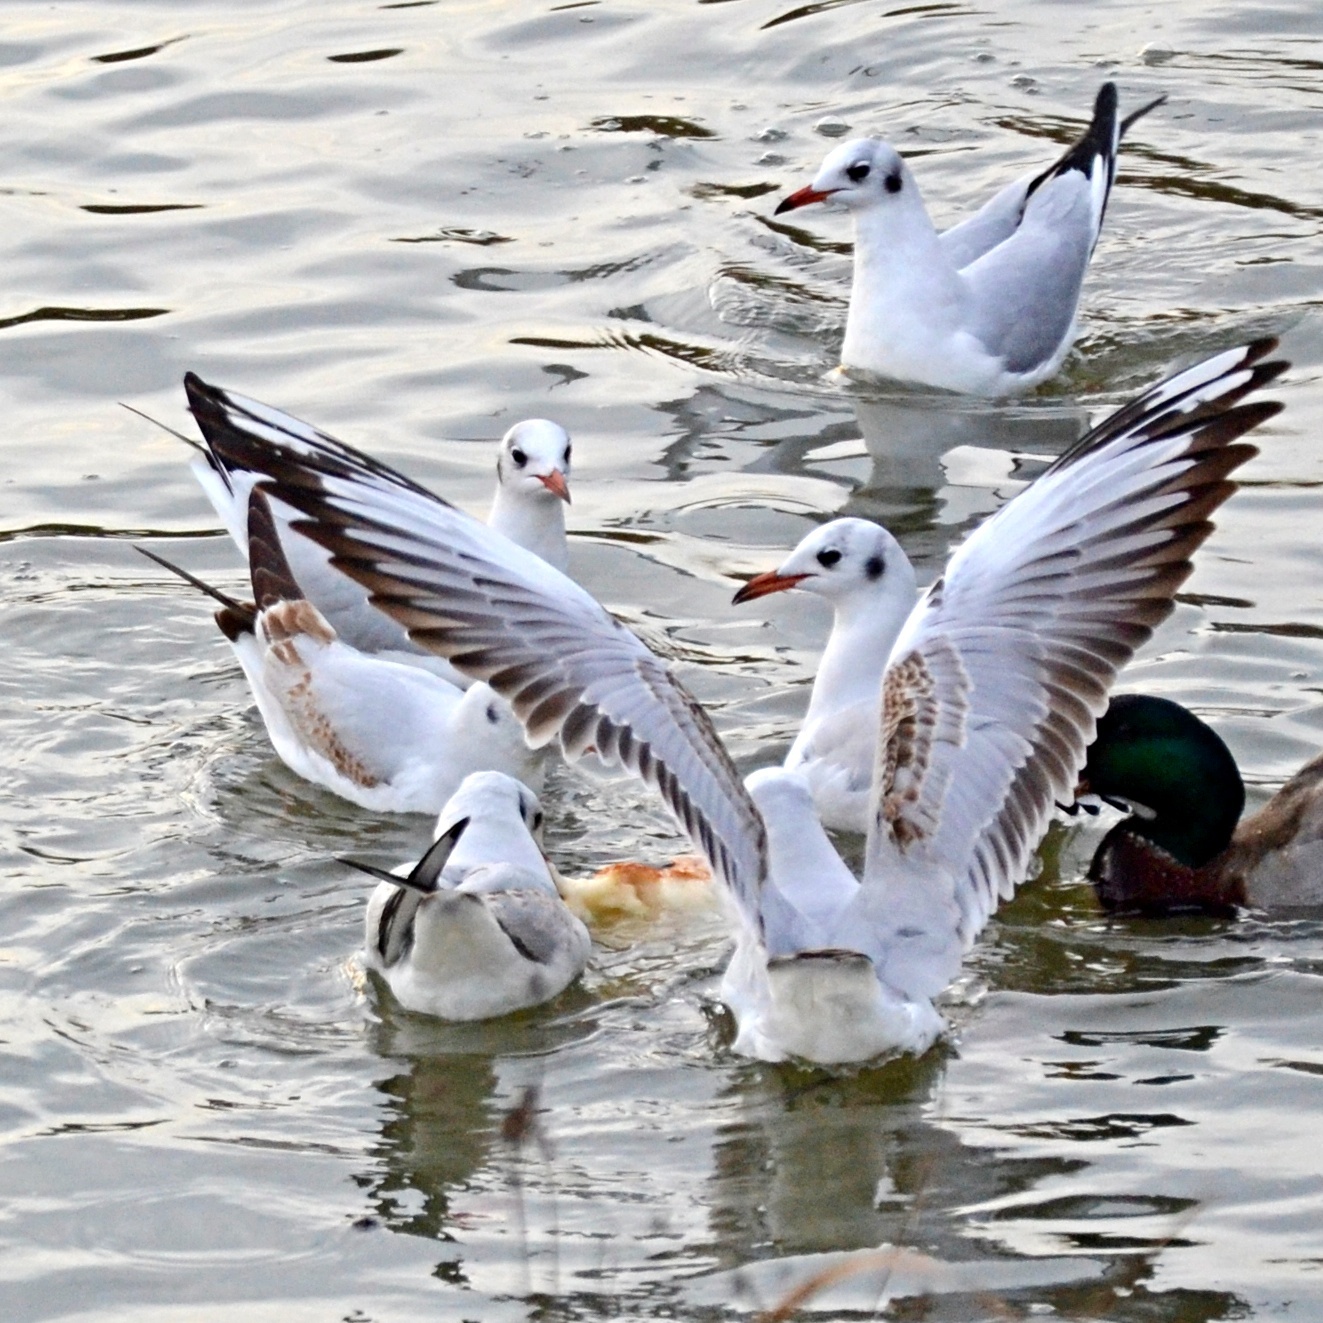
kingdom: Animalia
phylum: Chordata
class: Aves
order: Charadriiformes
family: Laridae
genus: Chroicocephalus
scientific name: Chroicocephalus ridibundus
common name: Black-headed gull
